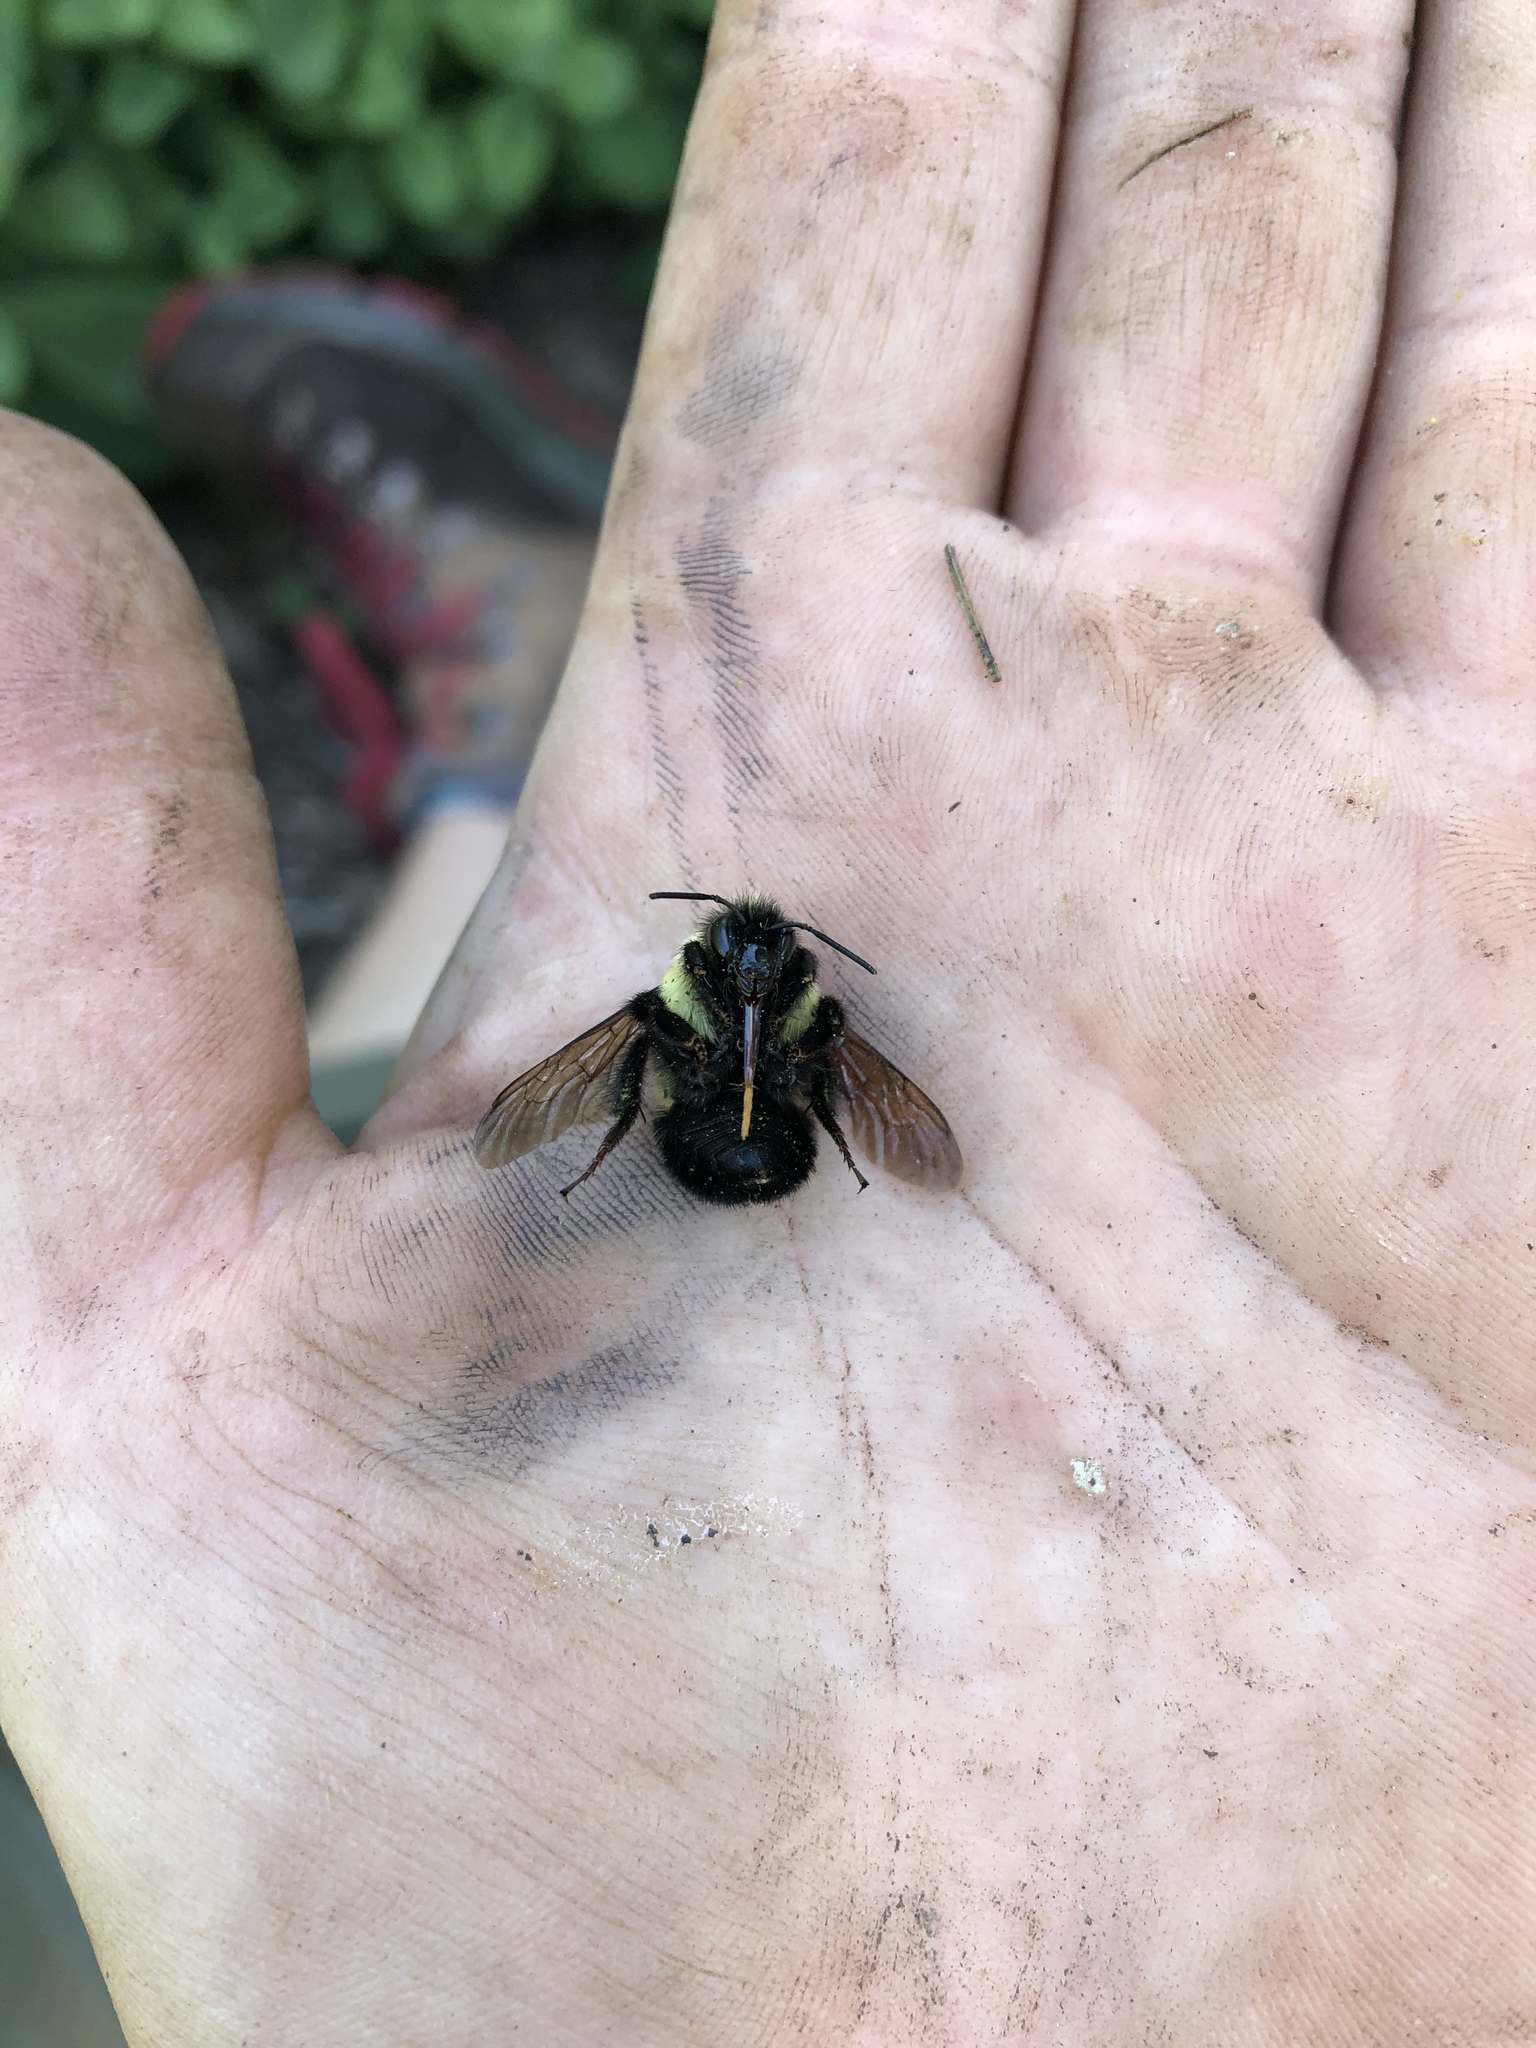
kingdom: Animalia
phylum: Arthropoda
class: Insecta
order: Hymenoptera
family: Apidae
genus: Bombus
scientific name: Bombus bimaculatus
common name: Two-spotted bumble bee
